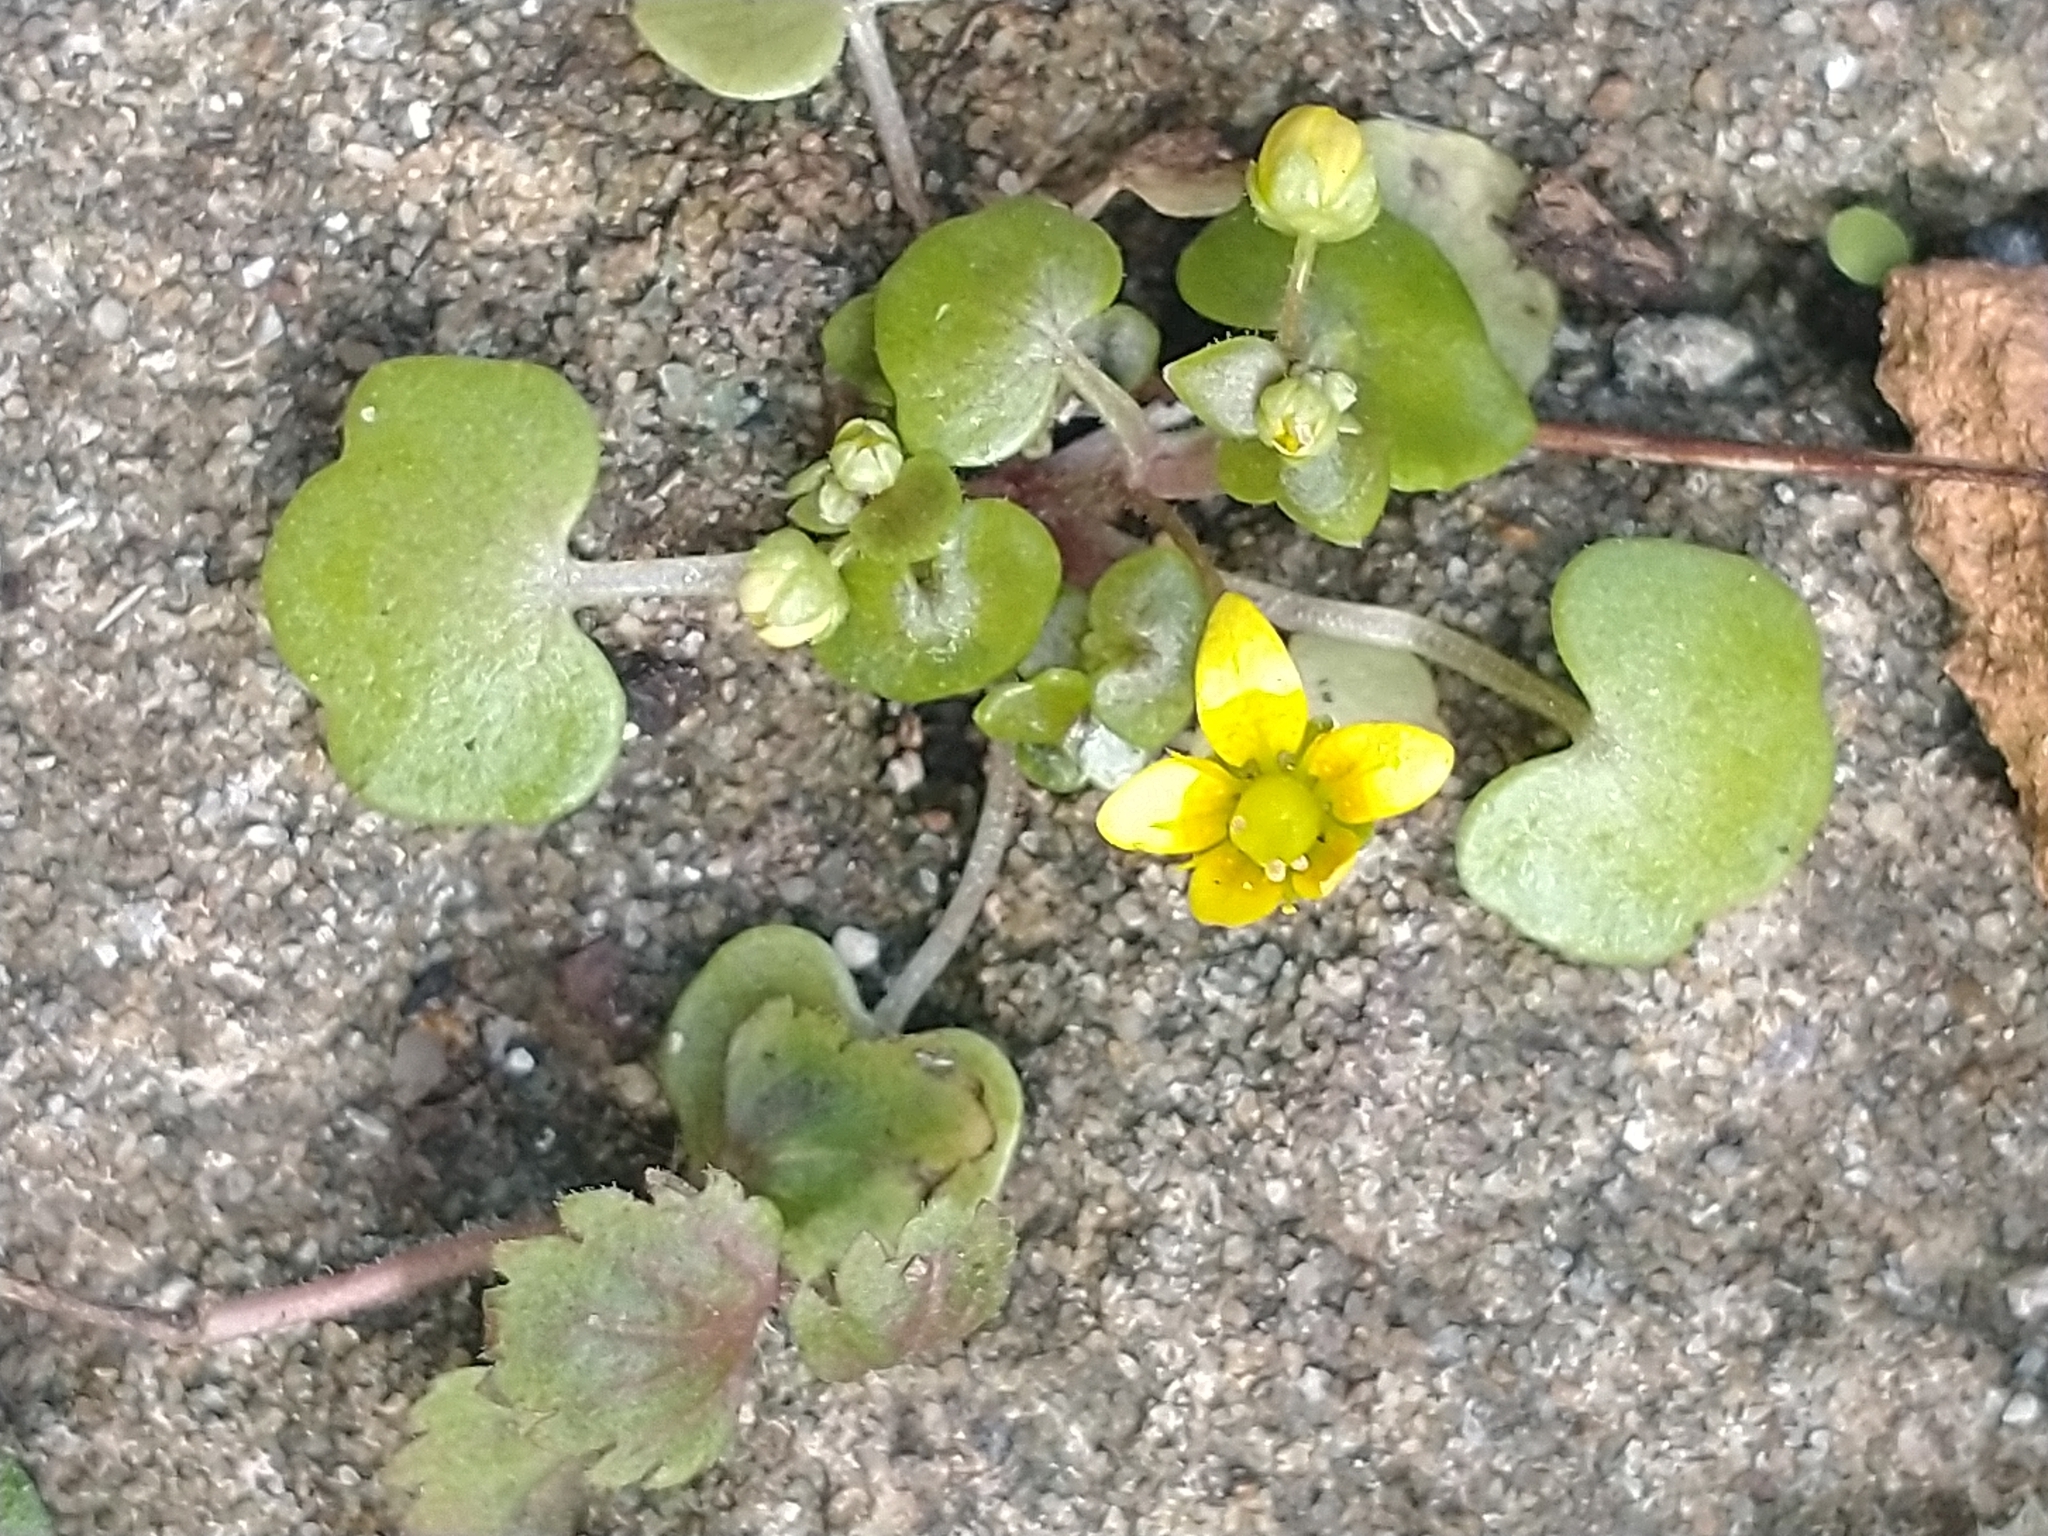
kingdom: Plantae
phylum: Tracheophyta
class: Magnoliopsida
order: Saxifragales
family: Saxifragaceae
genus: Saxifraga
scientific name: Saxifraga cymbalaria
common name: Celandine saxifrage
